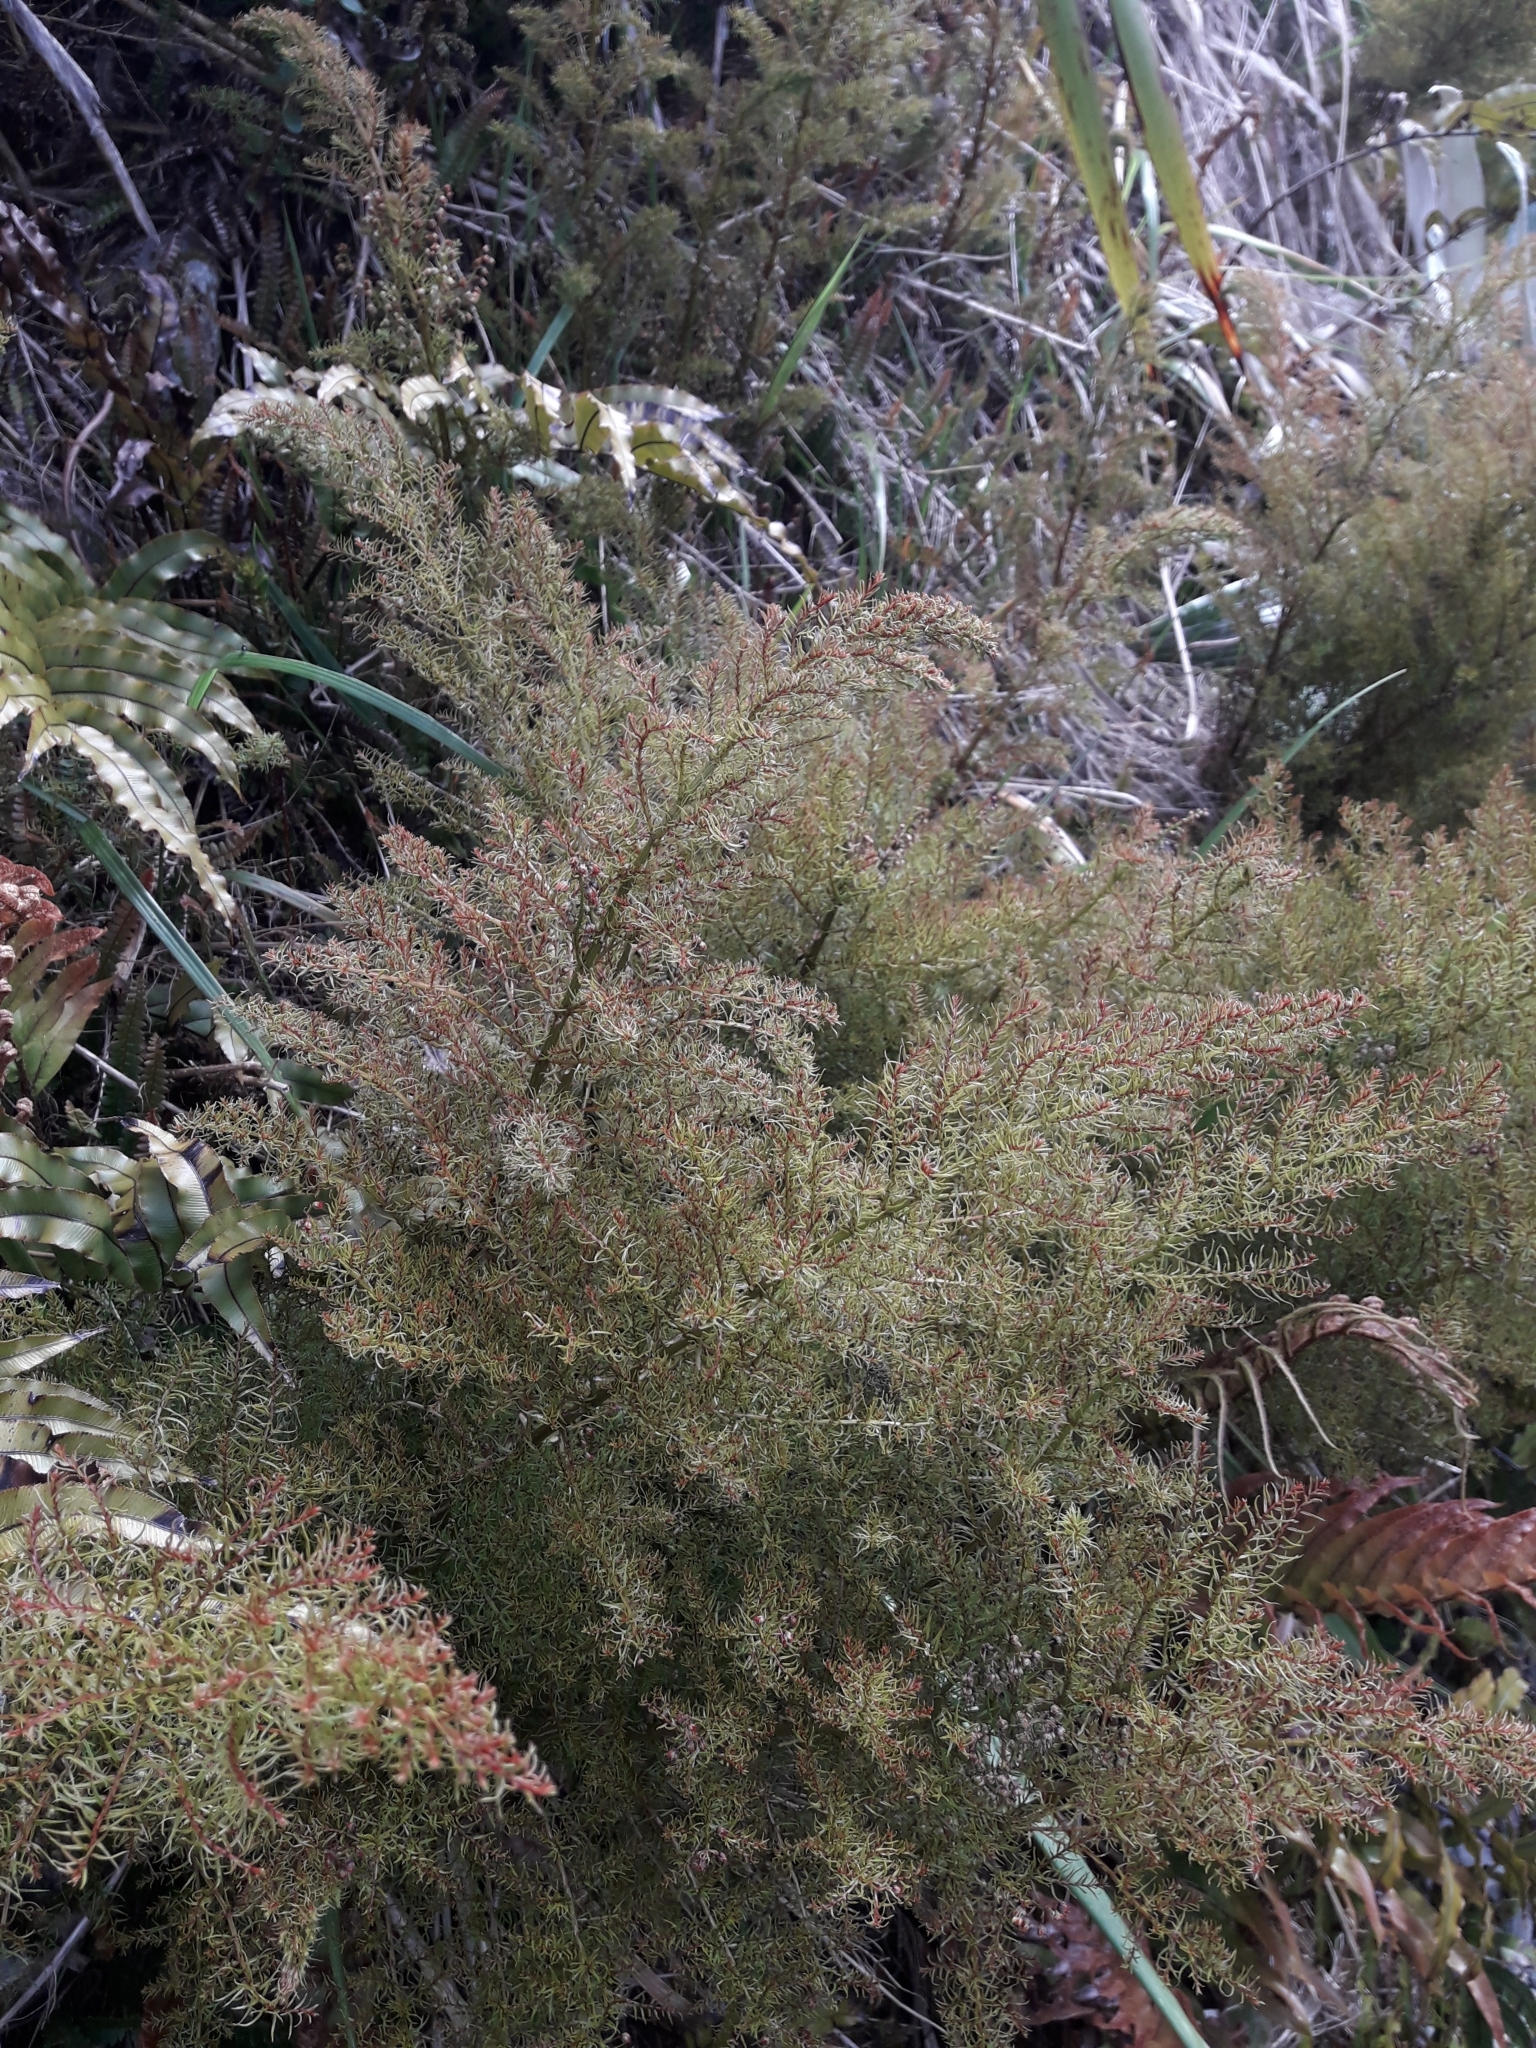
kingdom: Plantae
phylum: Tracheophyta
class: Magnoliopsida
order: Cucurbitales
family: Coriariaceae
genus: Coriaria
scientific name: Coriaria angustissima
